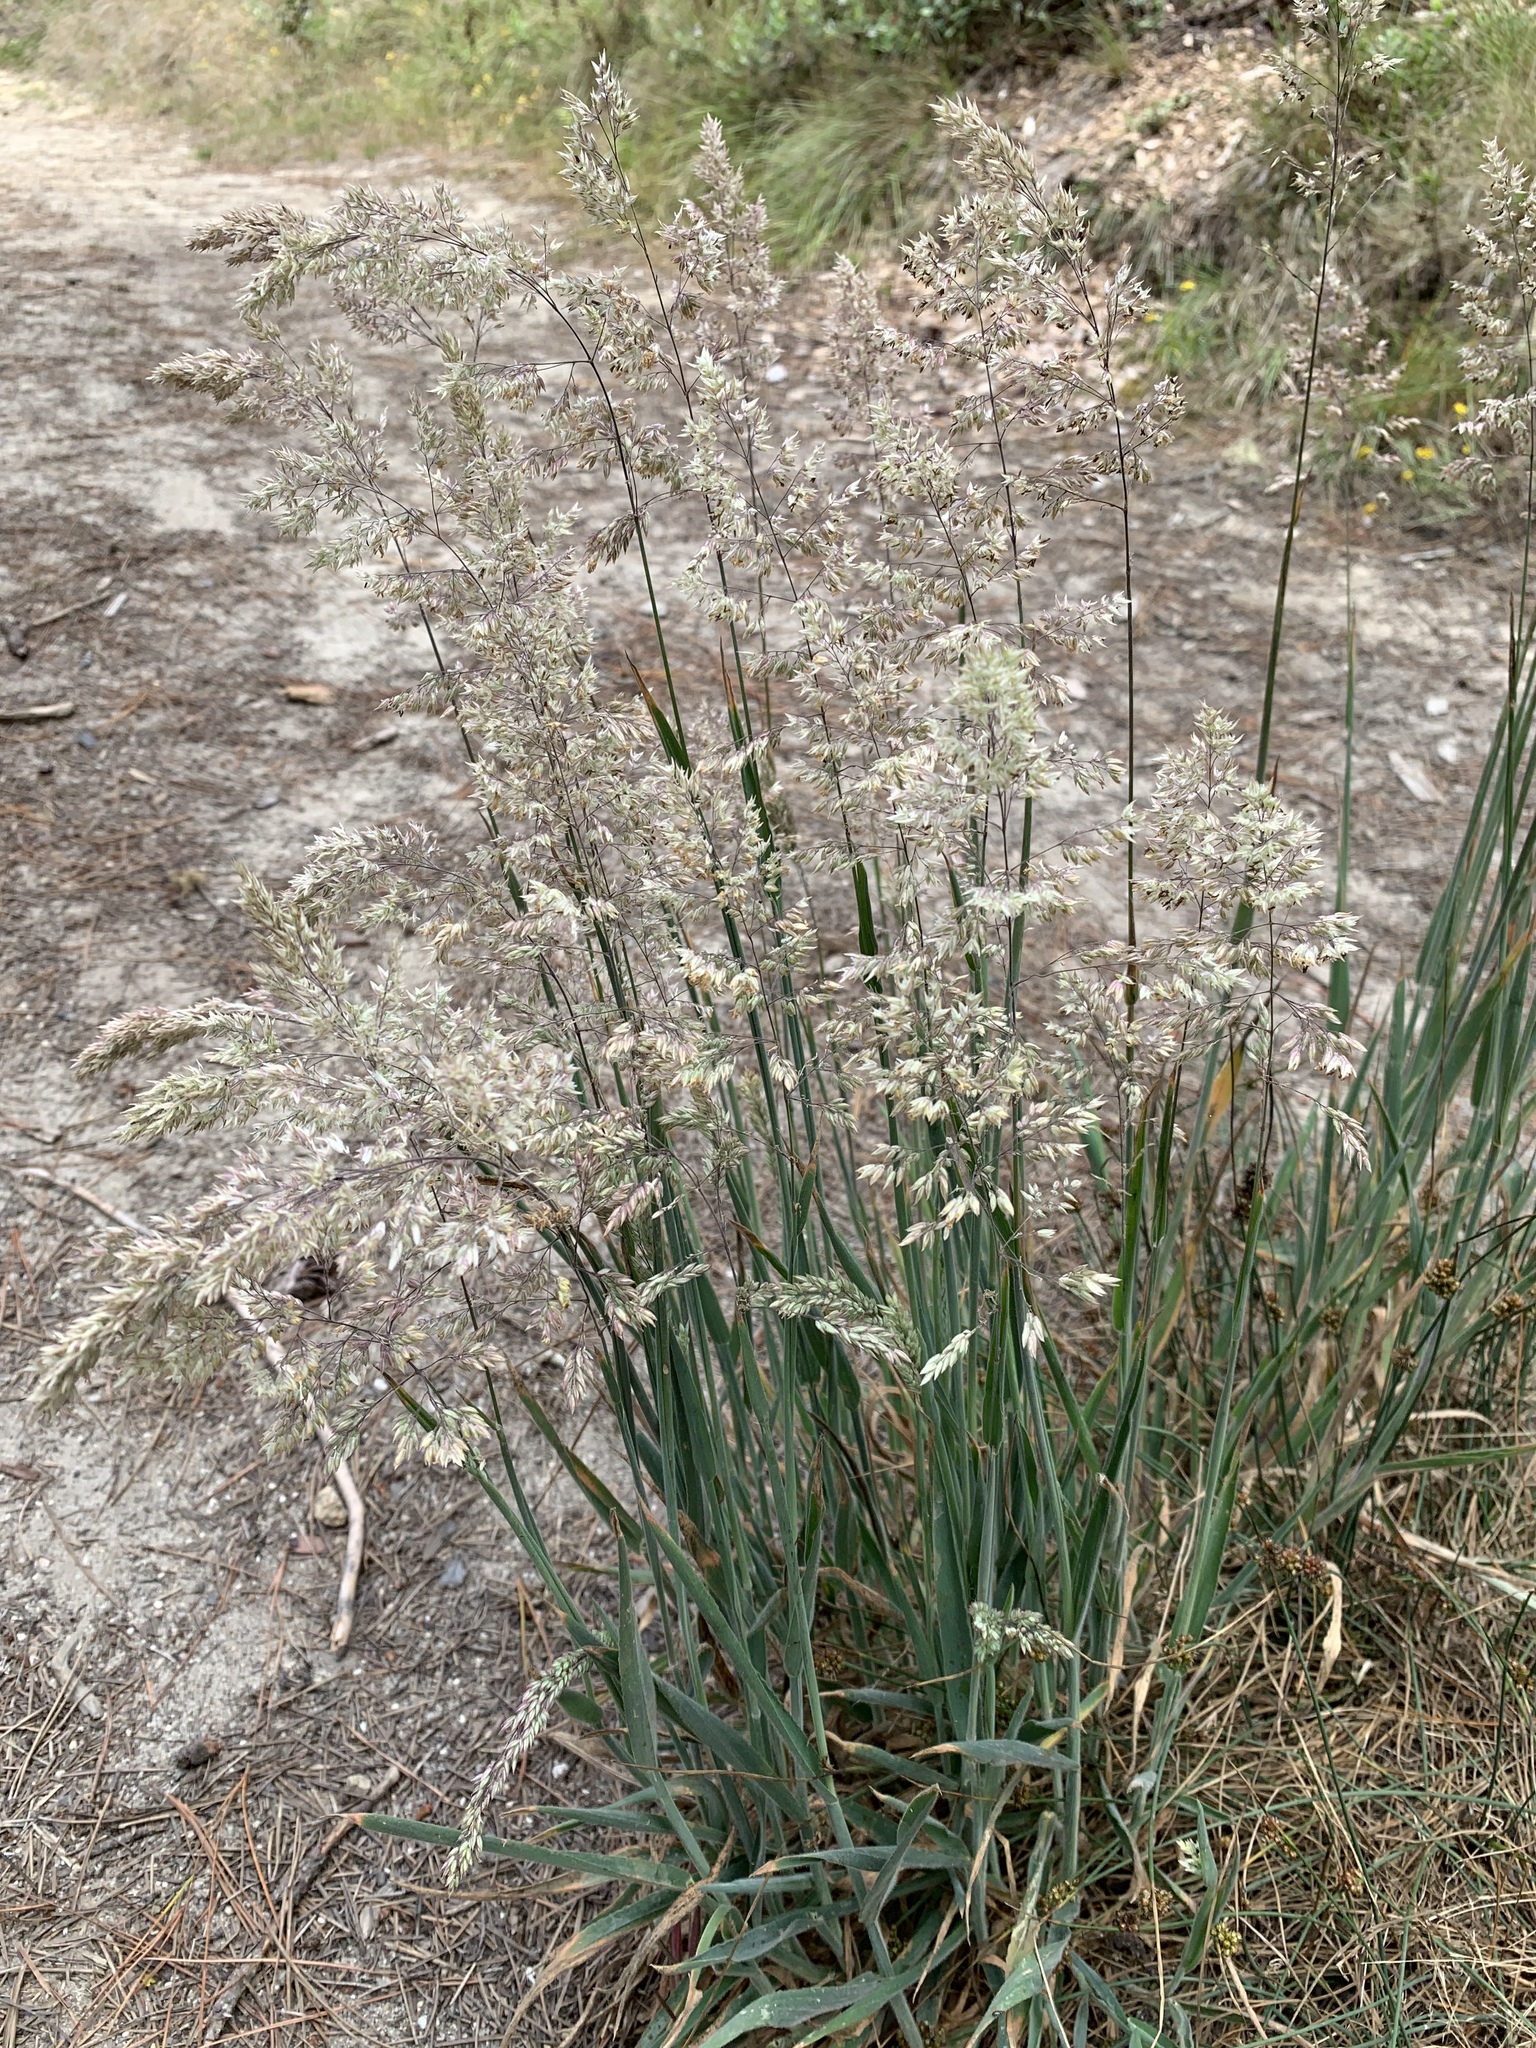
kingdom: Plantae
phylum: Tracheophyta
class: Liliopsida
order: Poales
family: Poaceae
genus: Holcus
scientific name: Holcus lanatus
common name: Yorkshire-fog
